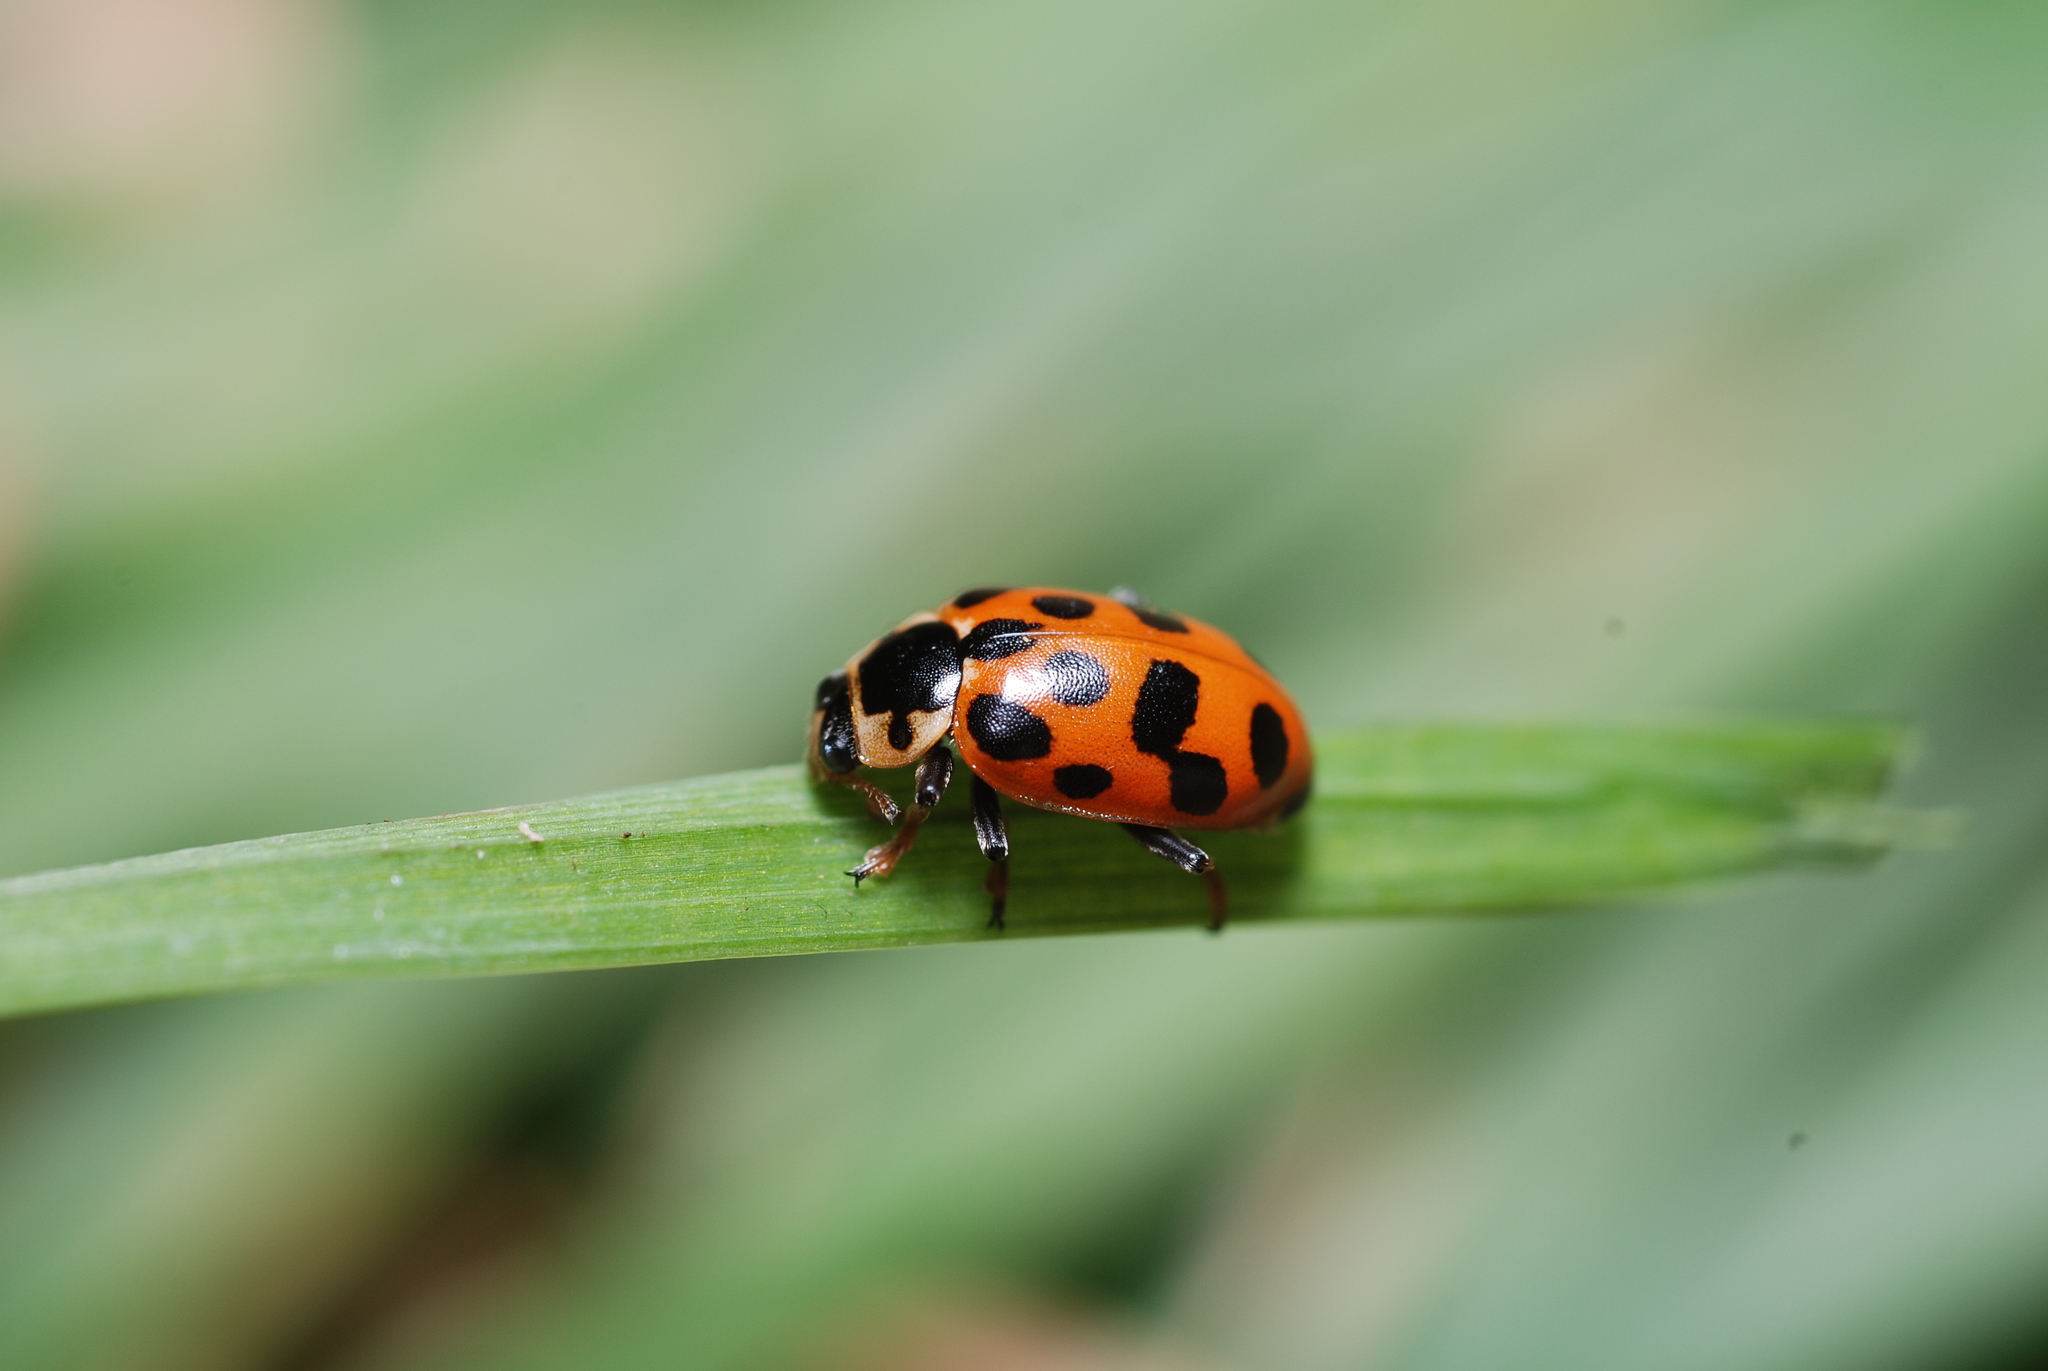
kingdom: Animalia
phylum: Arthropoda
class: Insecta
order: Coleoptera
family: Coccinellidae
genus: Hippodamia
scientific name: Hippodamia tredecimpunctata
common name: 13-spot ladybird
